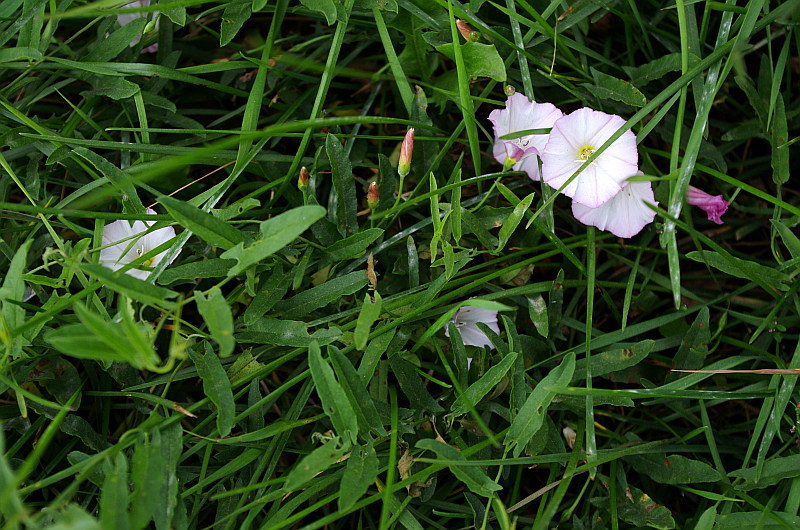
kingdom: Plantae
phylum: Tracheophyta
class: Magnoliopsida
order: Solanales
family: Convolvulaceae
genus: Convolvulus
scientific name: Convolvulus arvensis
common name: Field bindweed
